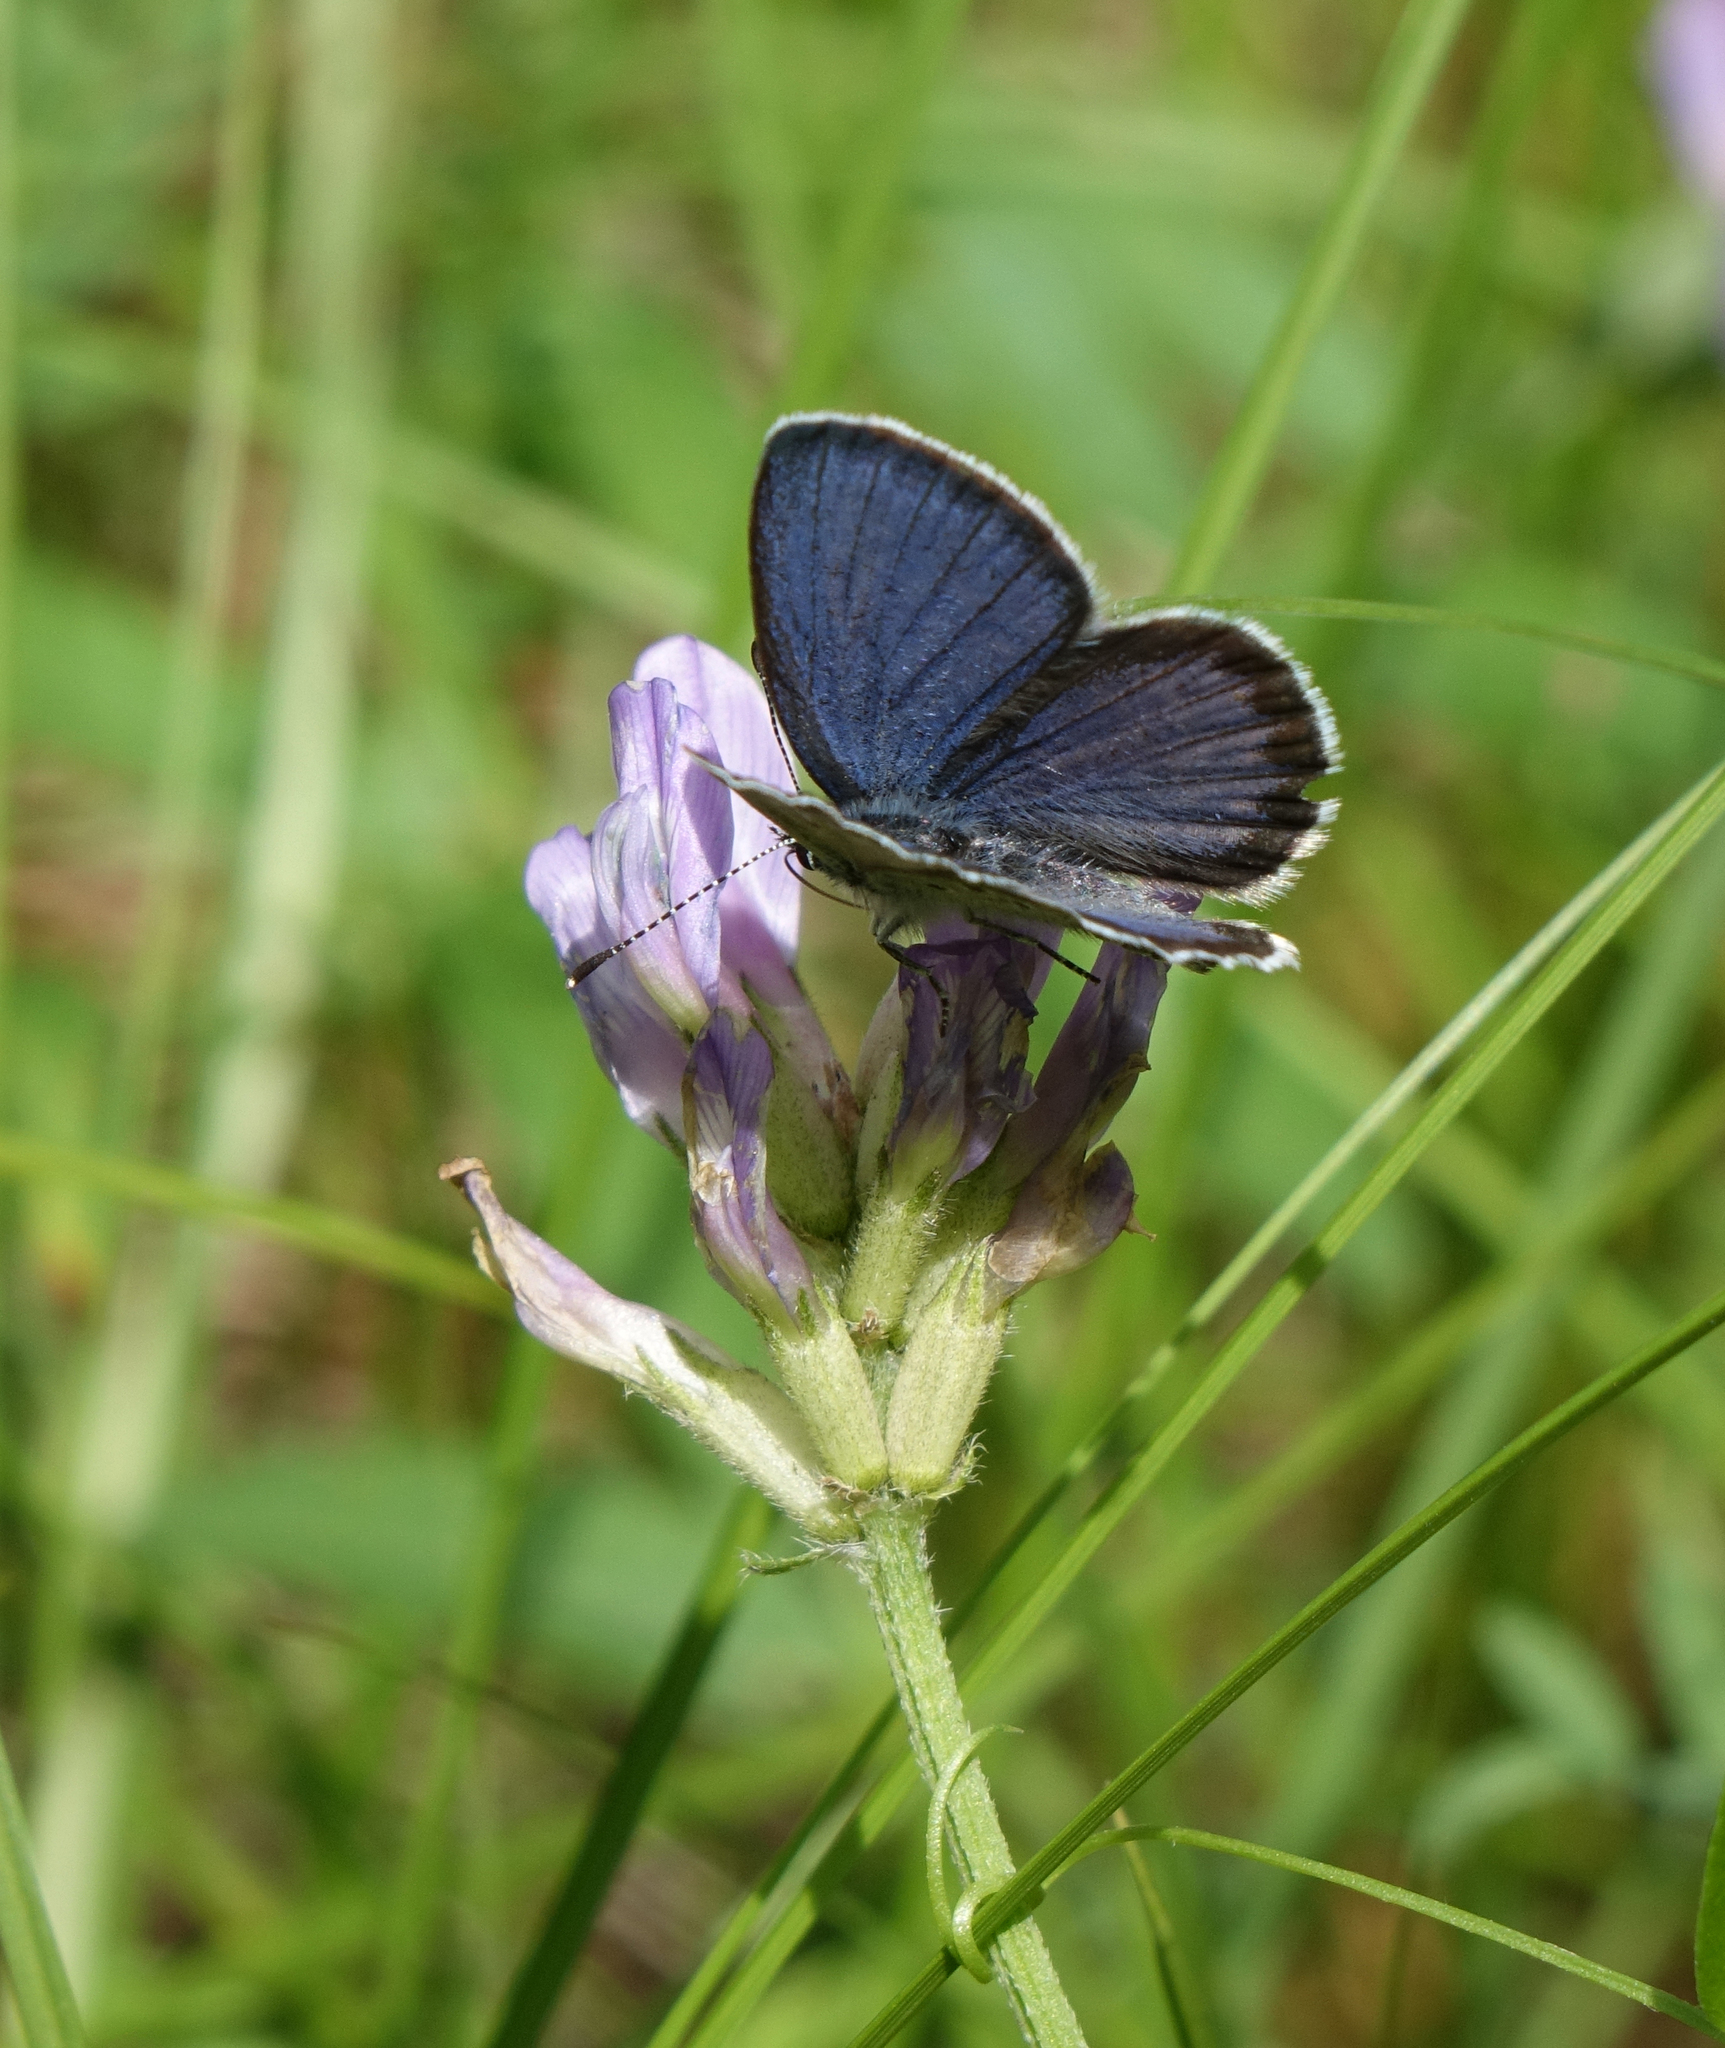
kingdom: Animalia
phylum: Arthropoda
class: Insecta
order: Lepidoptera
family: Lycaenidae
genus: Vacciniina
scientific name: Vacciniina optilete
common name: Cranberry blue
